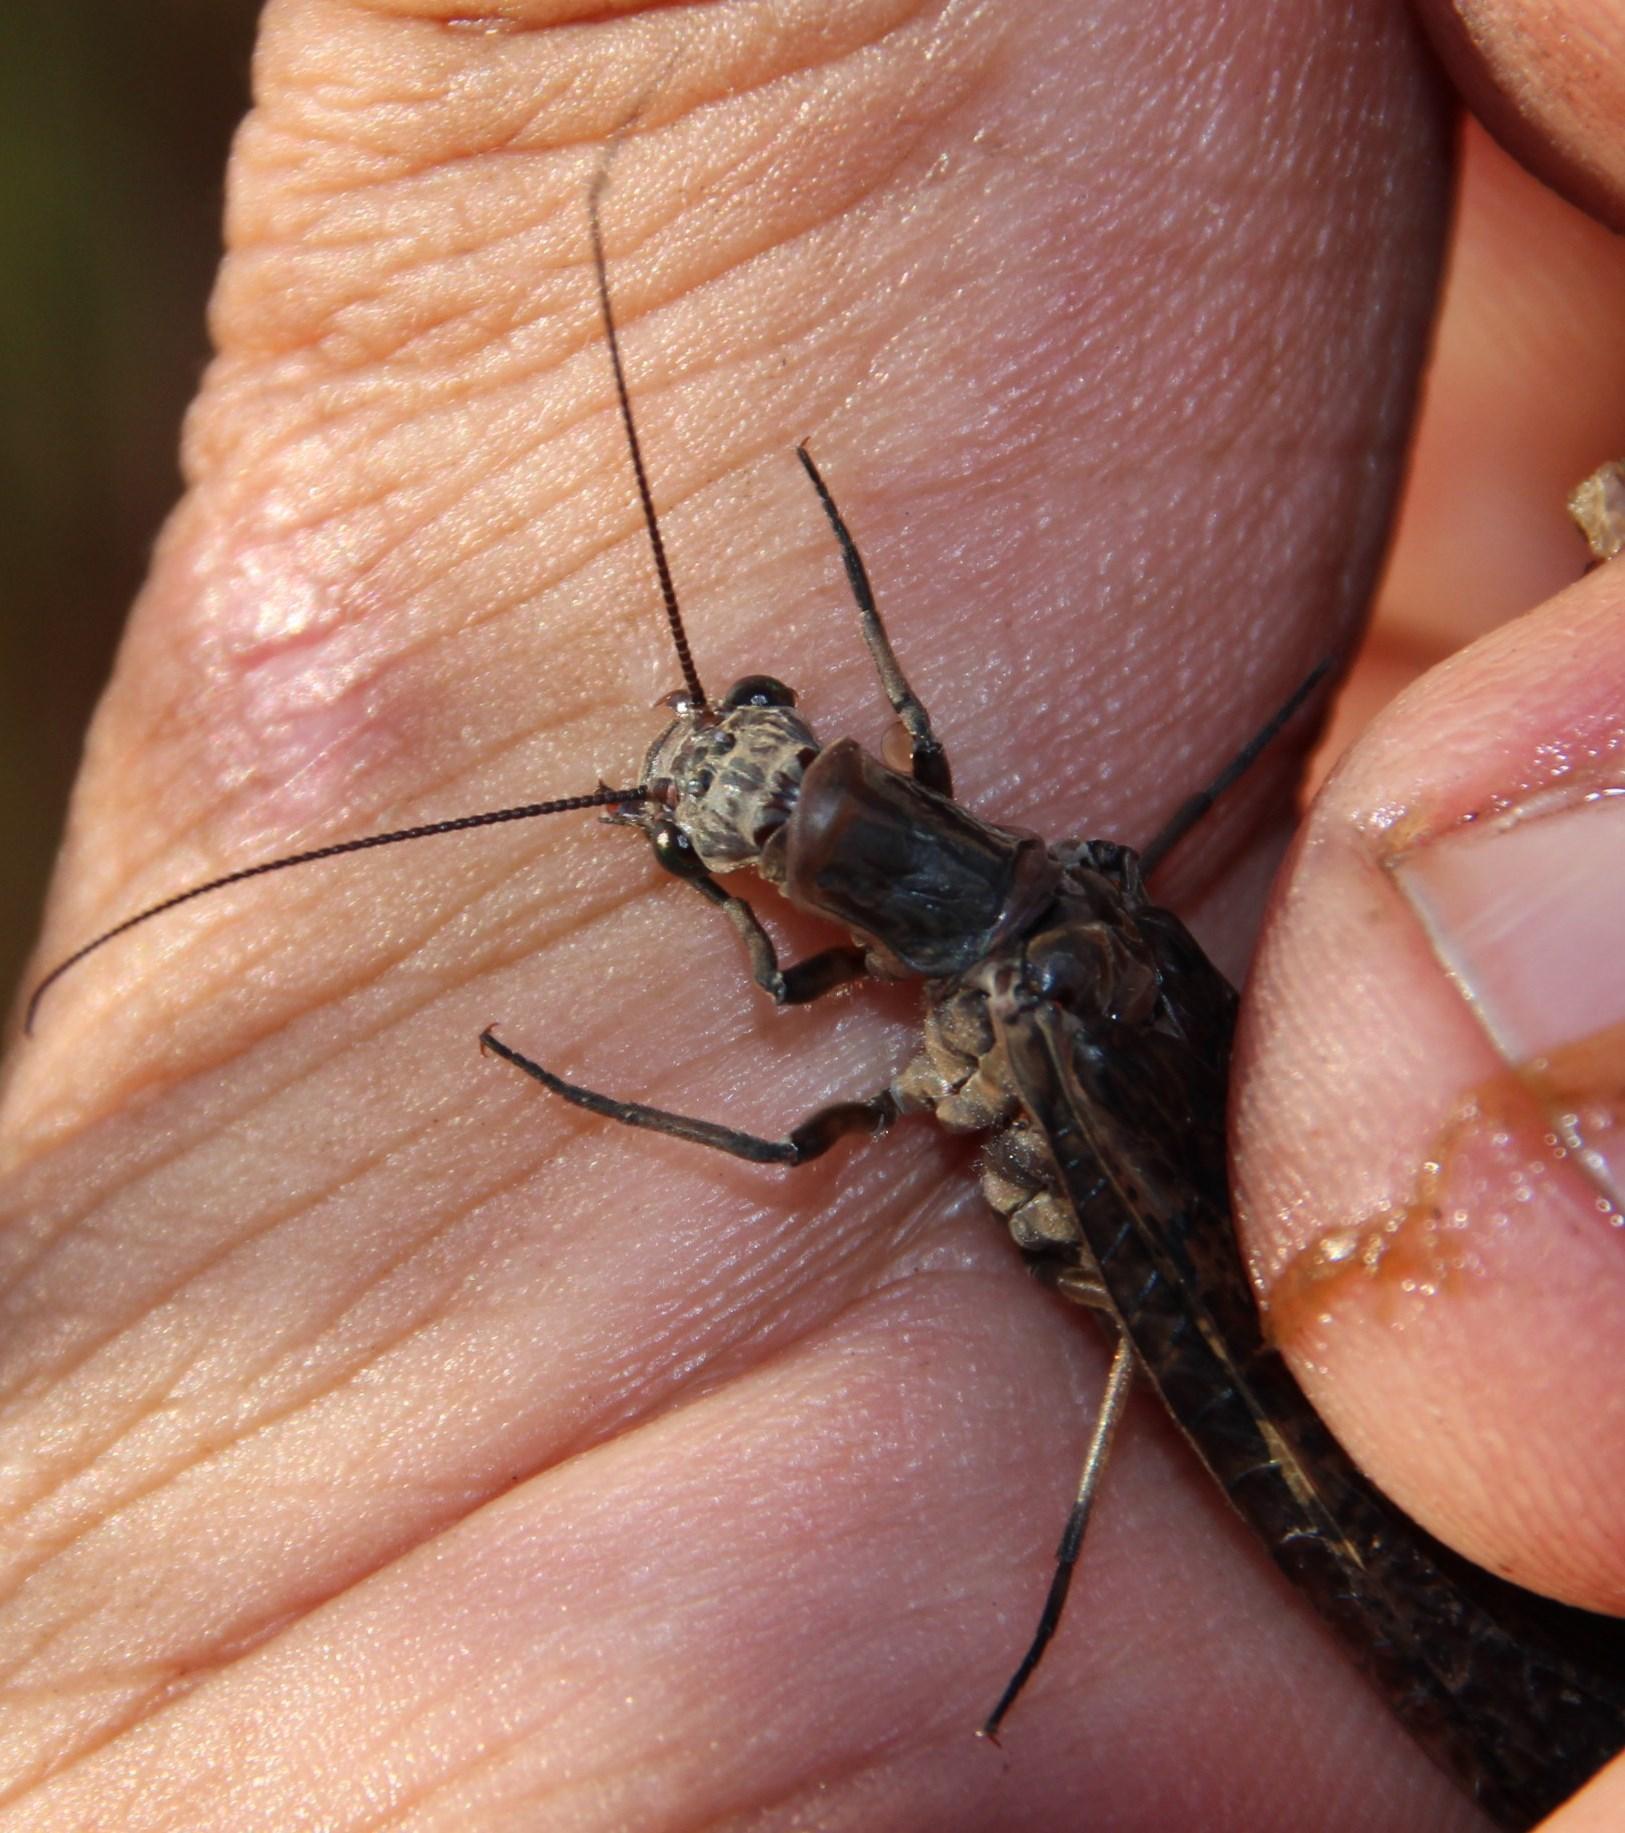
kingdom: Animalia
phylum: Arthropoda
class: Insecta
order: Megaloptera
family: Corydalidae
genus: Taeniochauliodes
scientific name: Taeniochauliodes ochraceopennis
